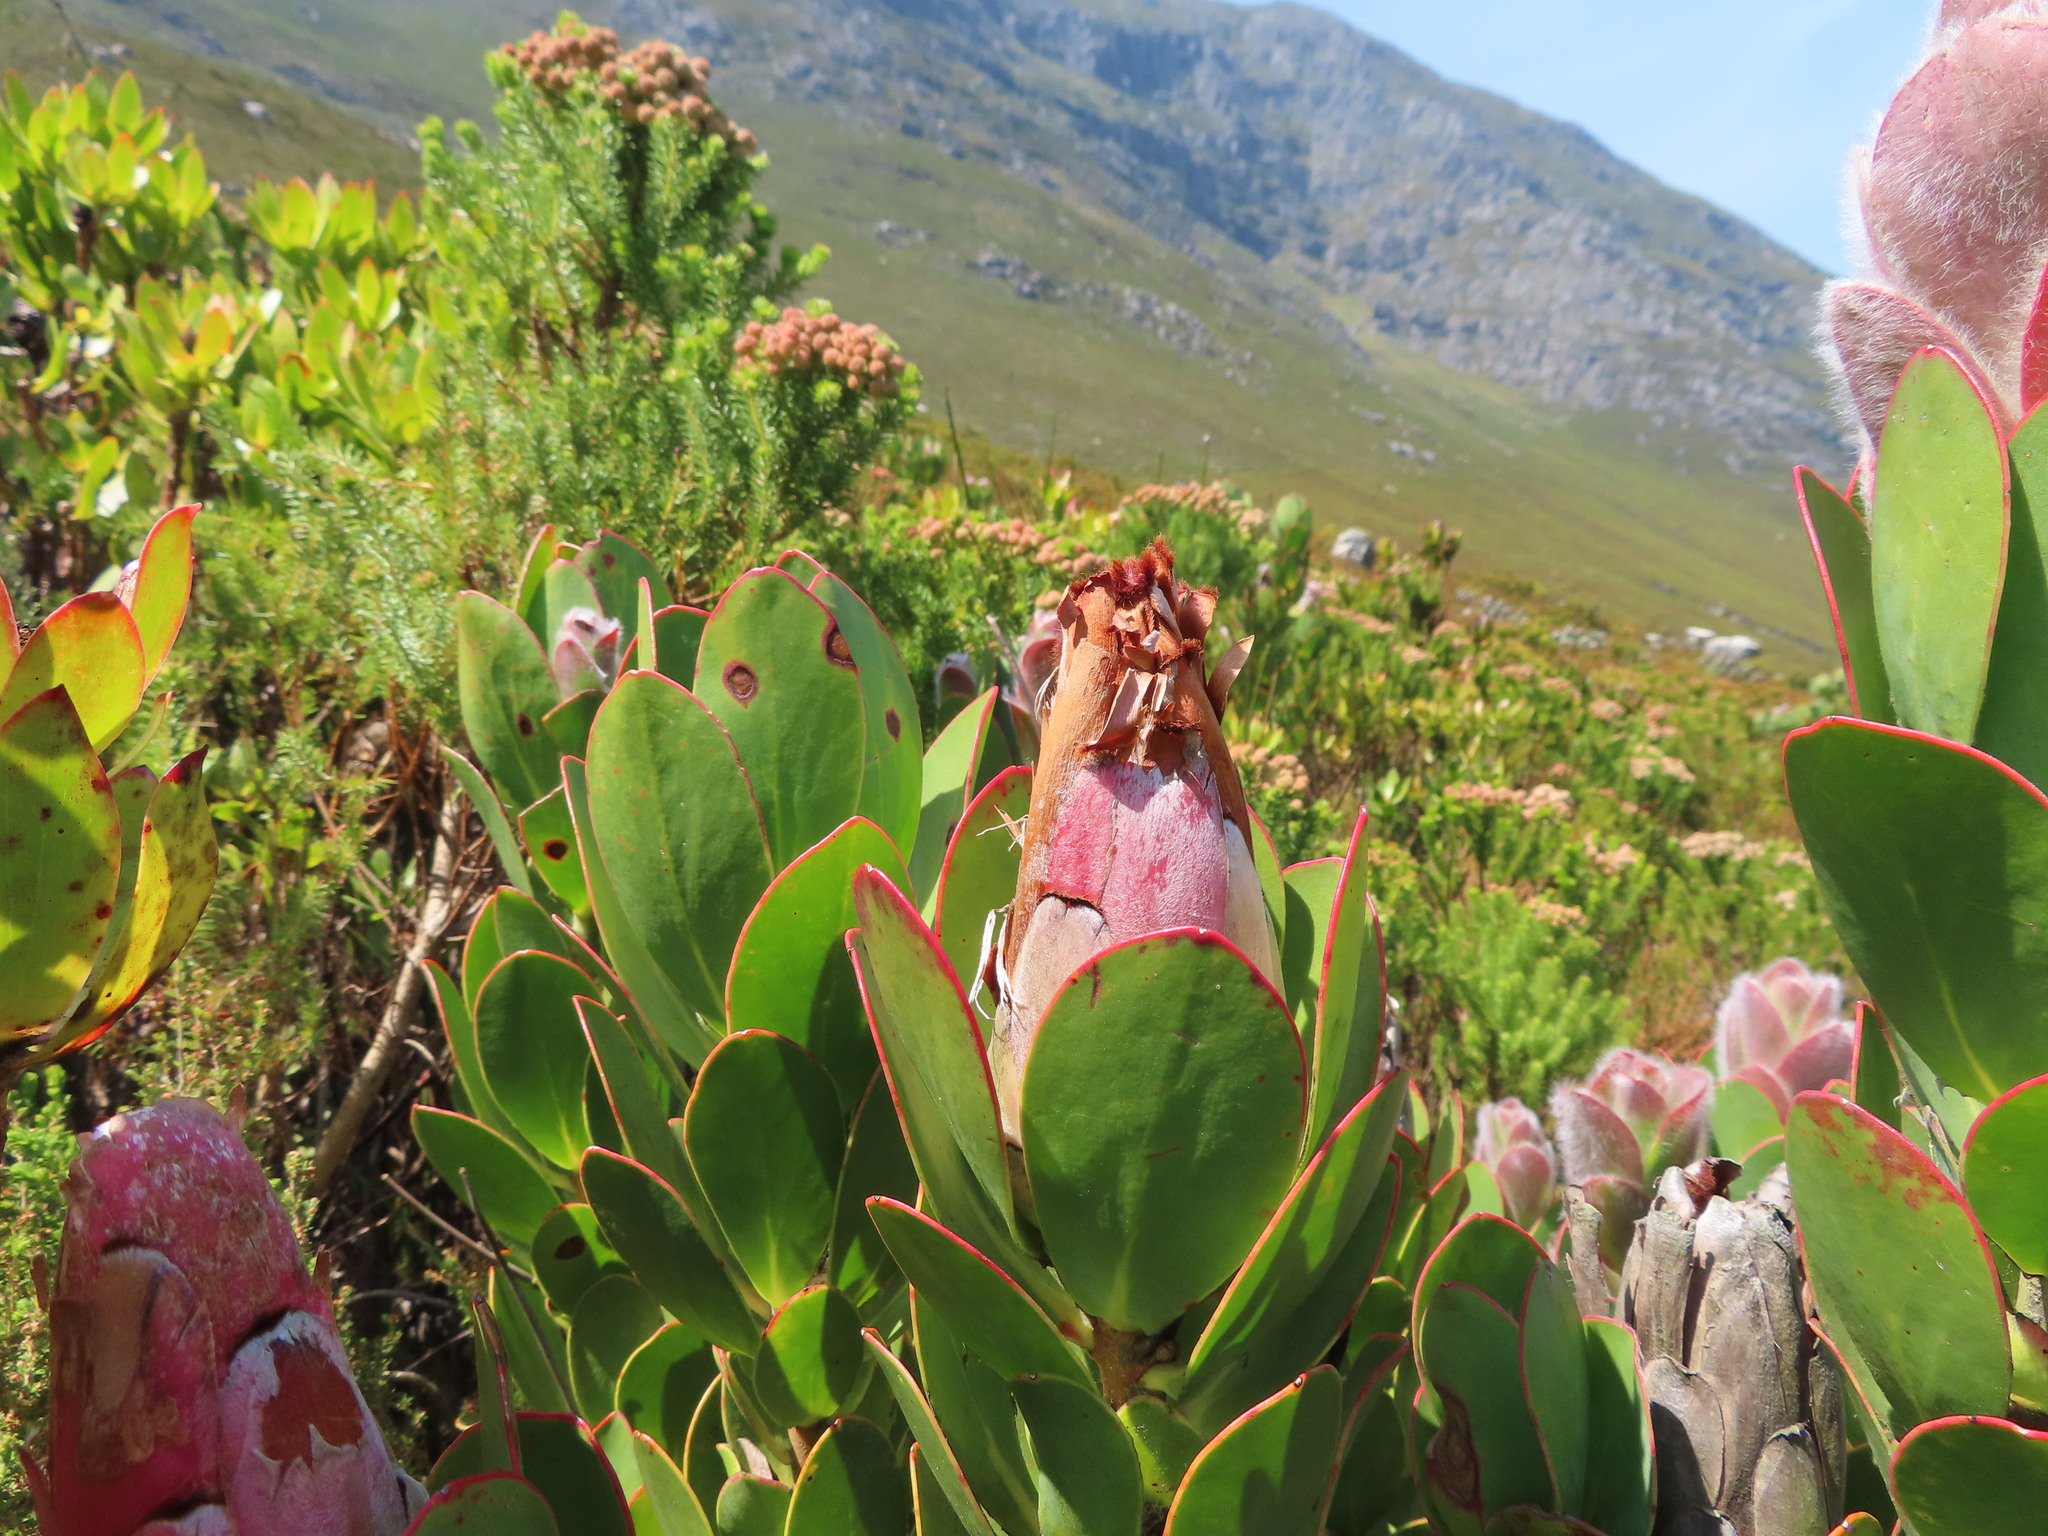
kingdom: Plantae
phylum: Tracheophyta
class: Magnoliopsida
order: Proteales
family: Proteaceae
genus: Protea
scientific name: Protea stokoei
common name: Pink sugarbush
